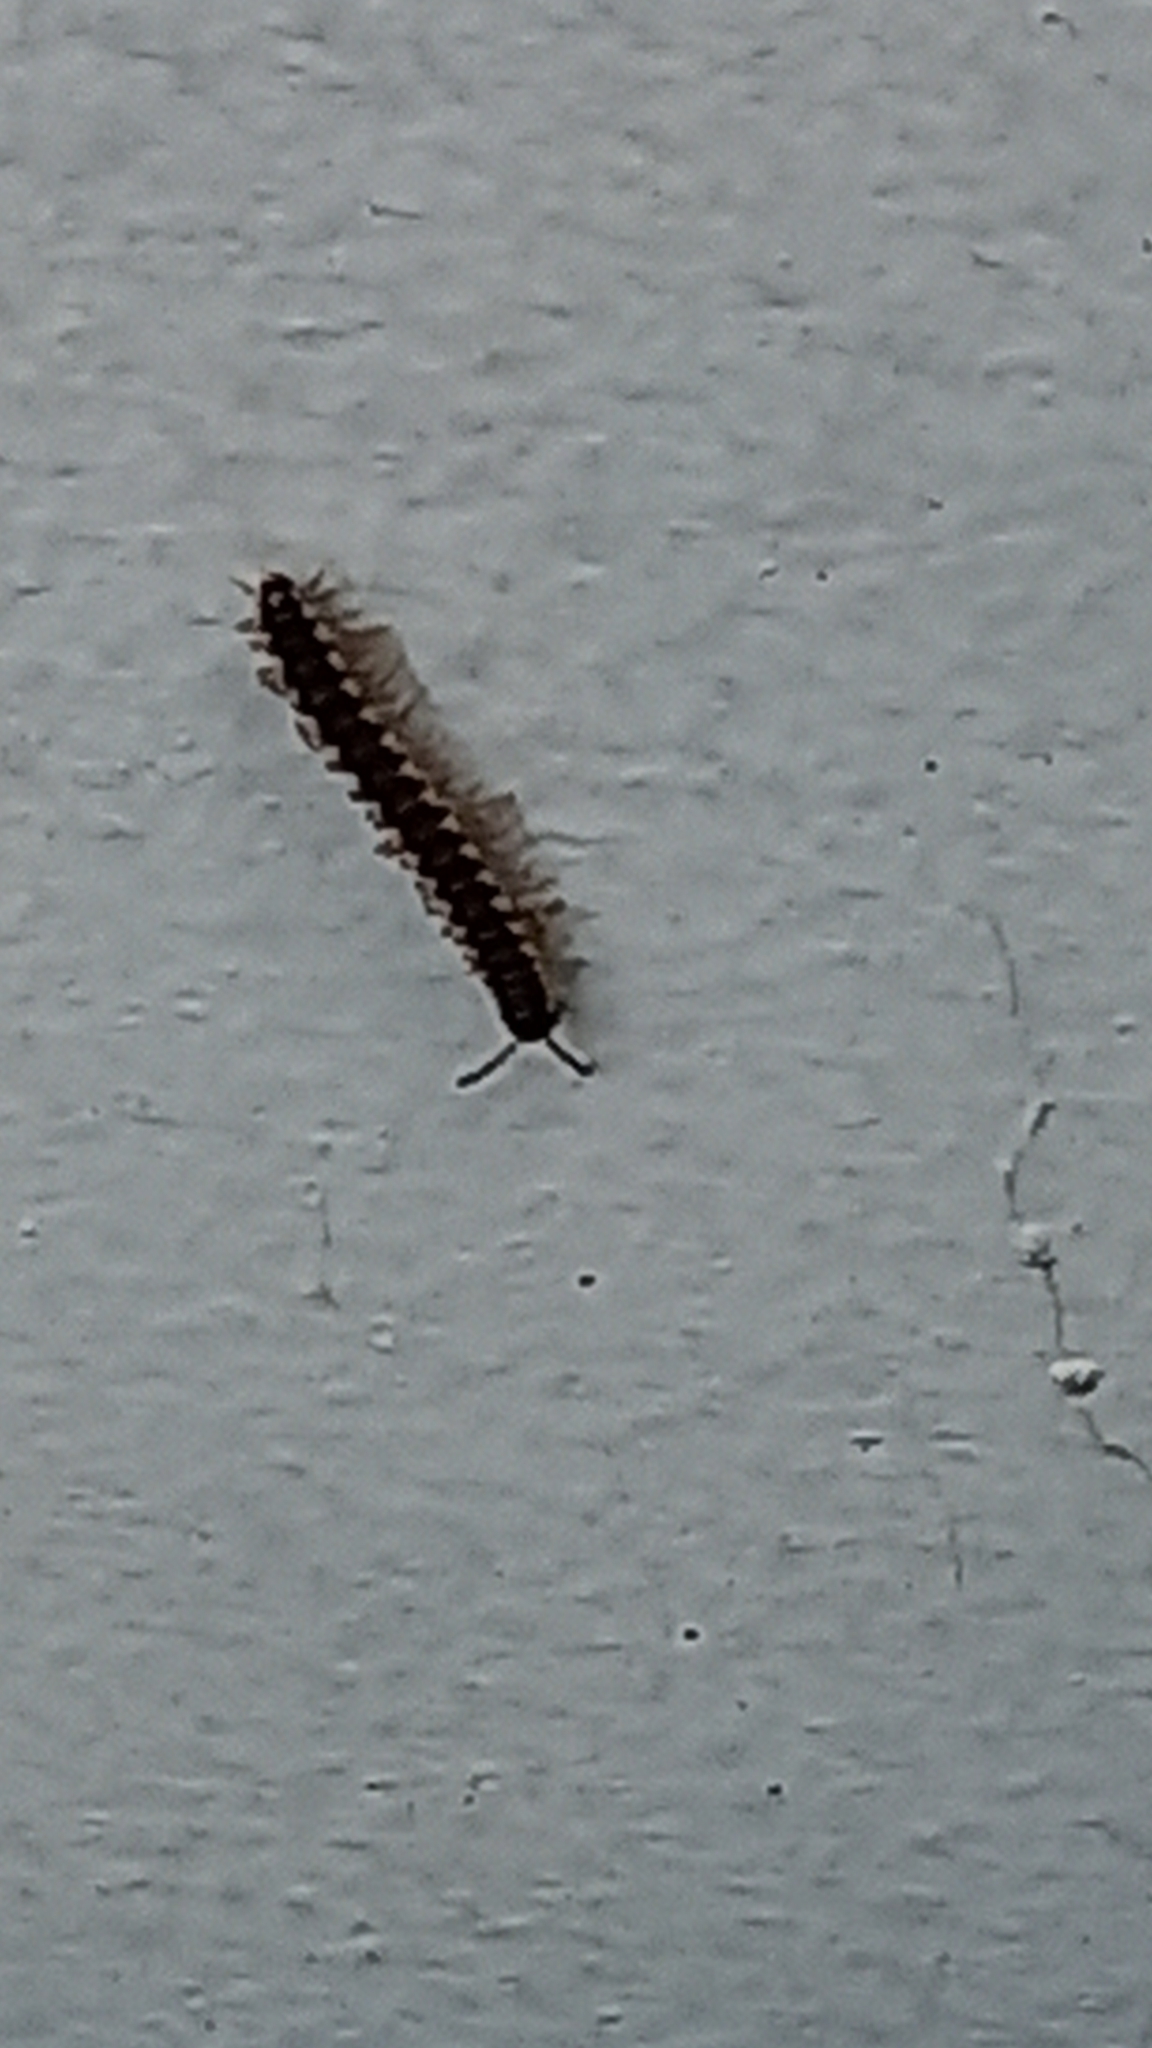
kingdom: Animalia
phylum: Arthropoda
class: Diplopoda
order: Polydesmida
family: Paradoxosomatidae
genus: Chondromorpha
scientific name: Chondromorpha xanthotricha
